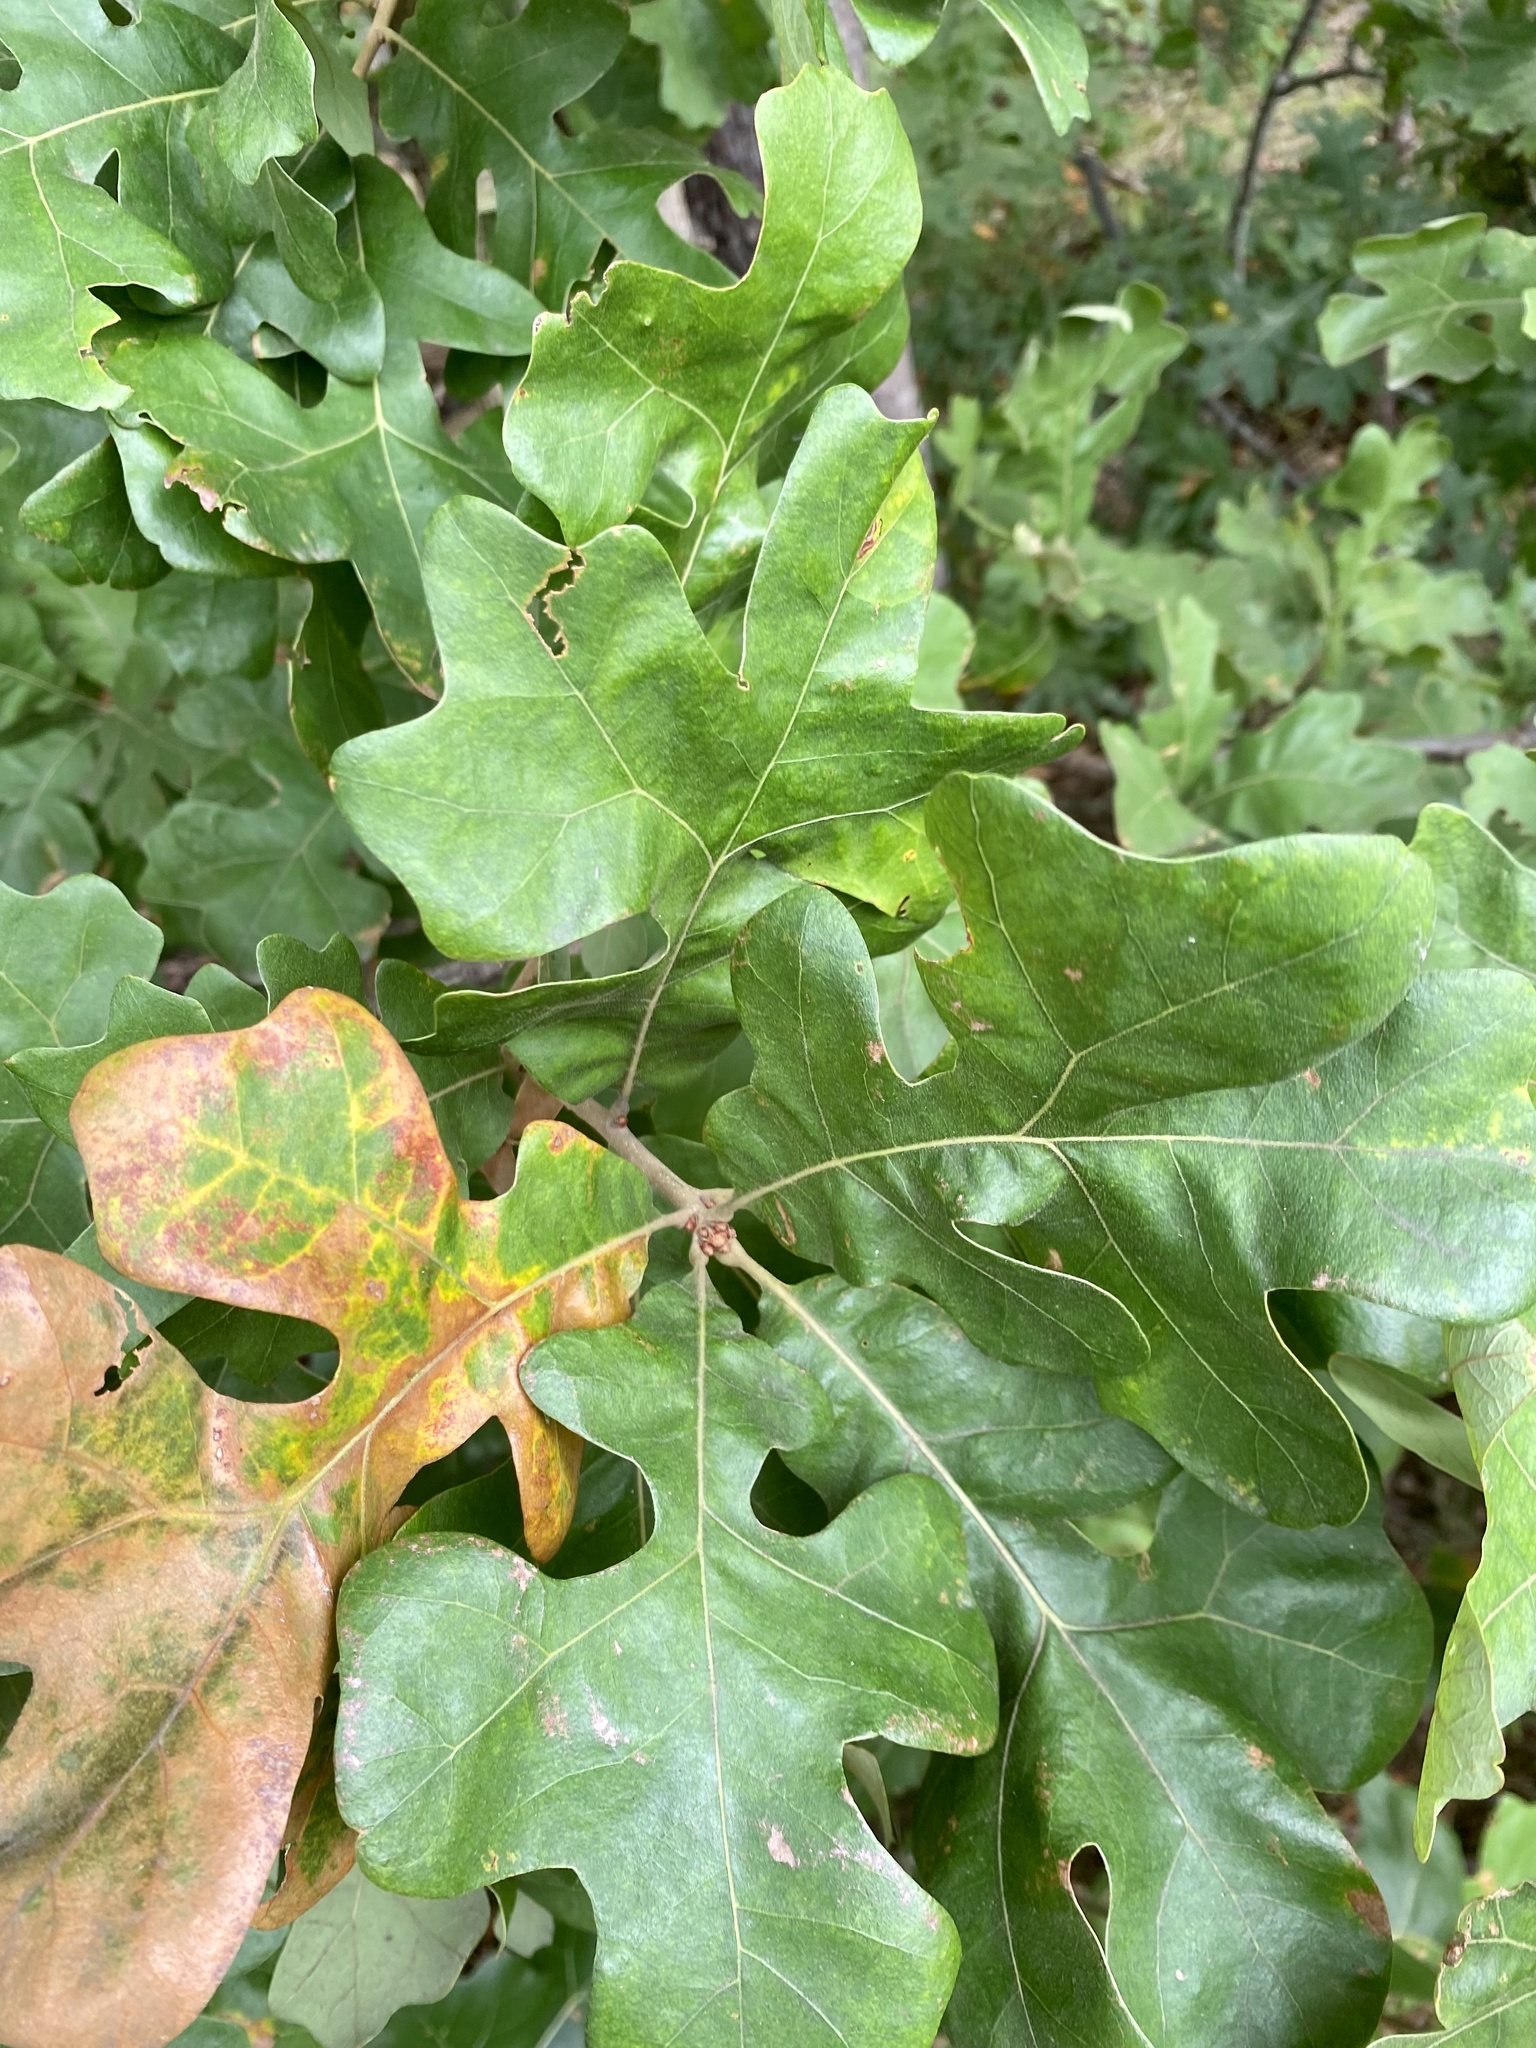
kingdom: Plantae
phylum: Tracheophyta
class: Magnoliopsida
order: Fagales
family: Fagaceae
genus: Quercus
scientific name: Quercus stellata
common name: Post oak
